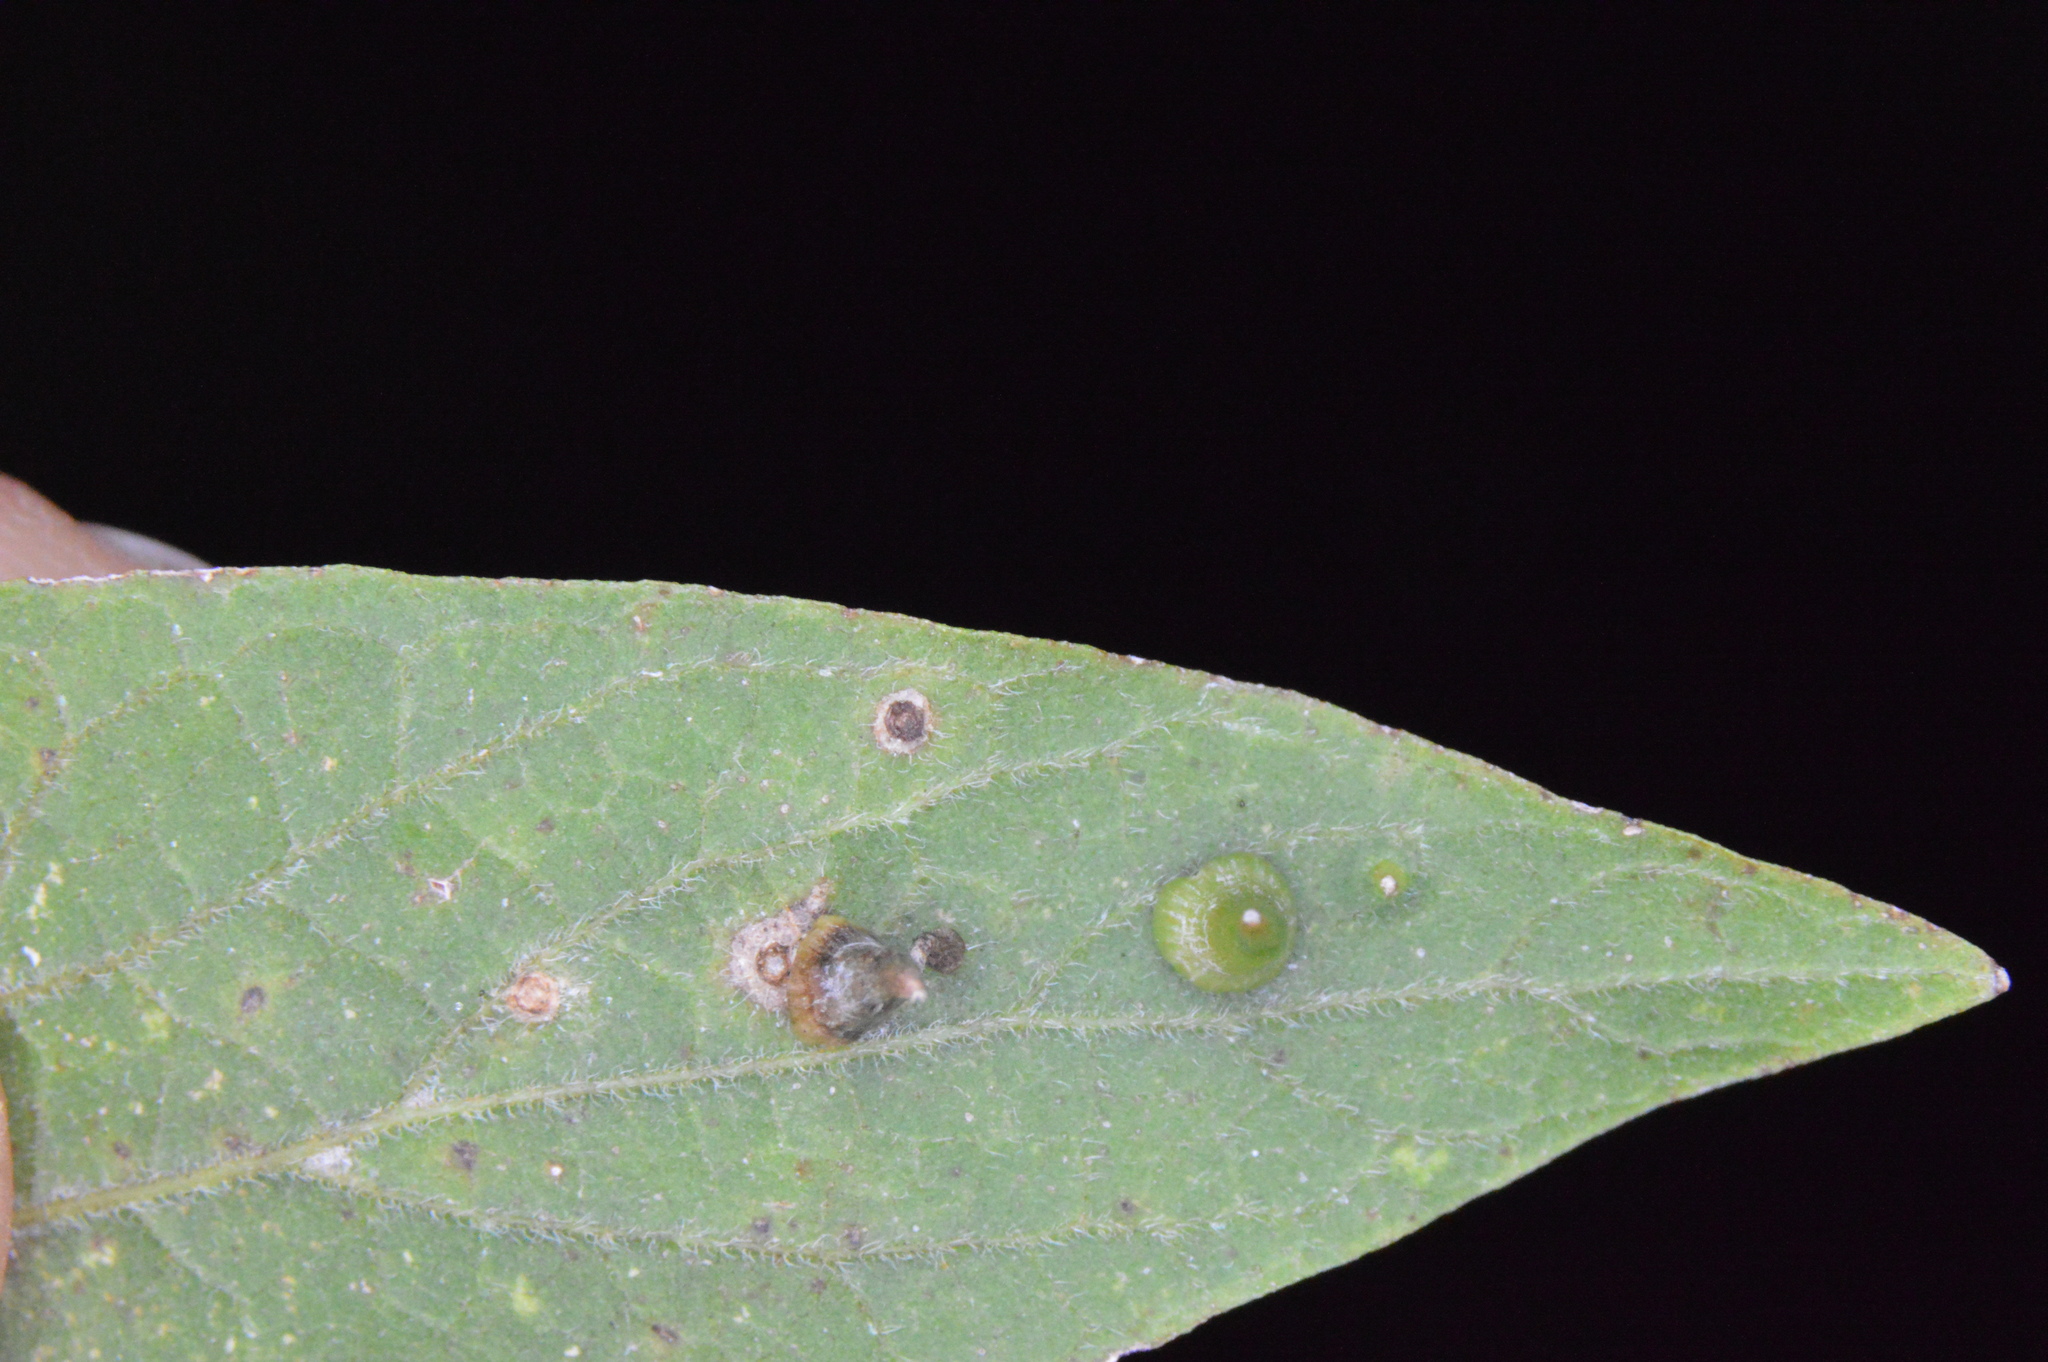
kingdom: Animalia
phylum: Arthropoda
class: Insecta
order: Diptera
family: Cecidomyiidae
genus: Celticecis
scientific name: Celticecis subulata
